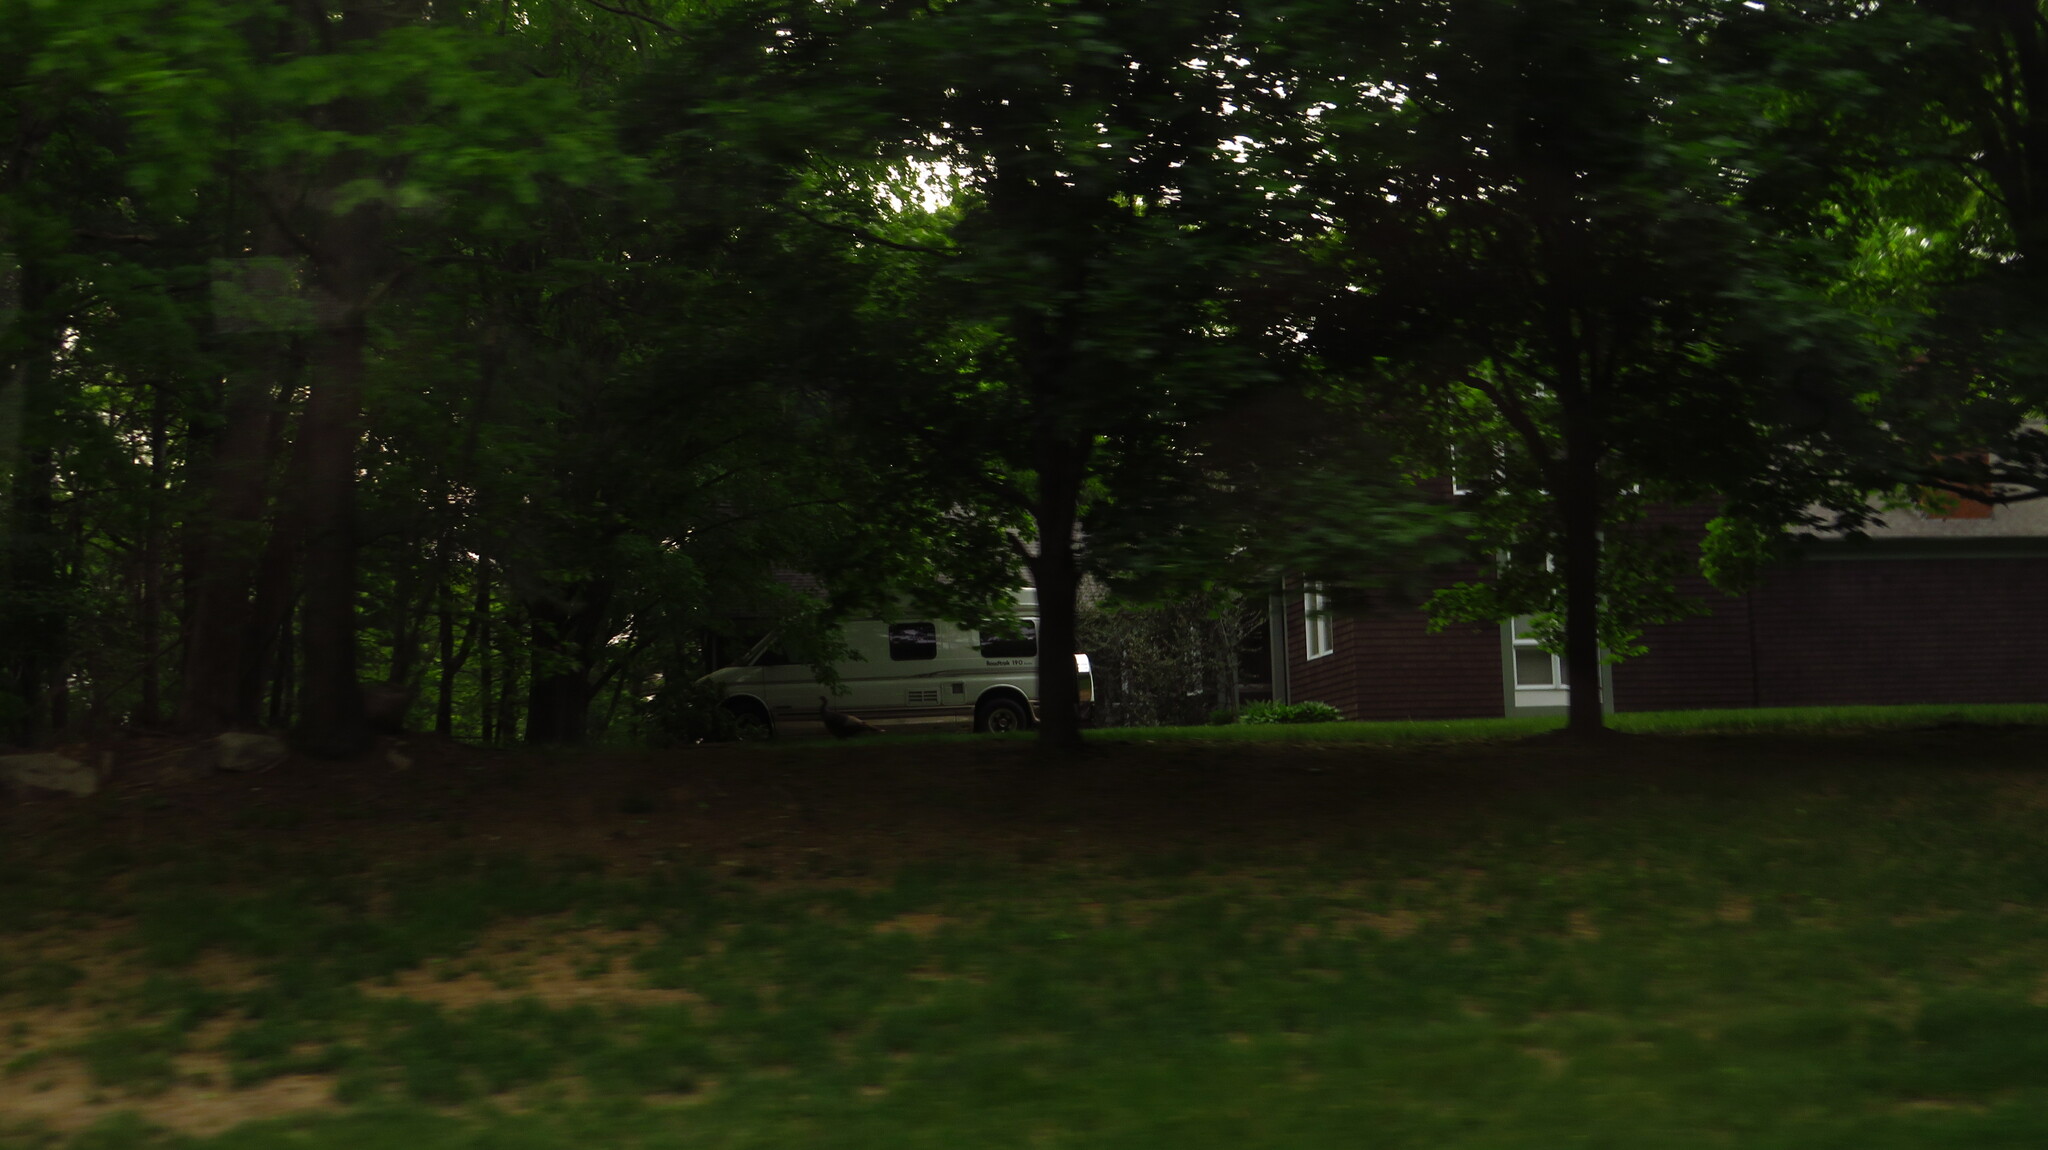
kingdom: Animalia
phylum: Chordata
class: Aves
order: Galliformes
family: Phasianidae
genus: Meleagris
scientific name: Meleagris gallopavo
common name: Wild turkey
